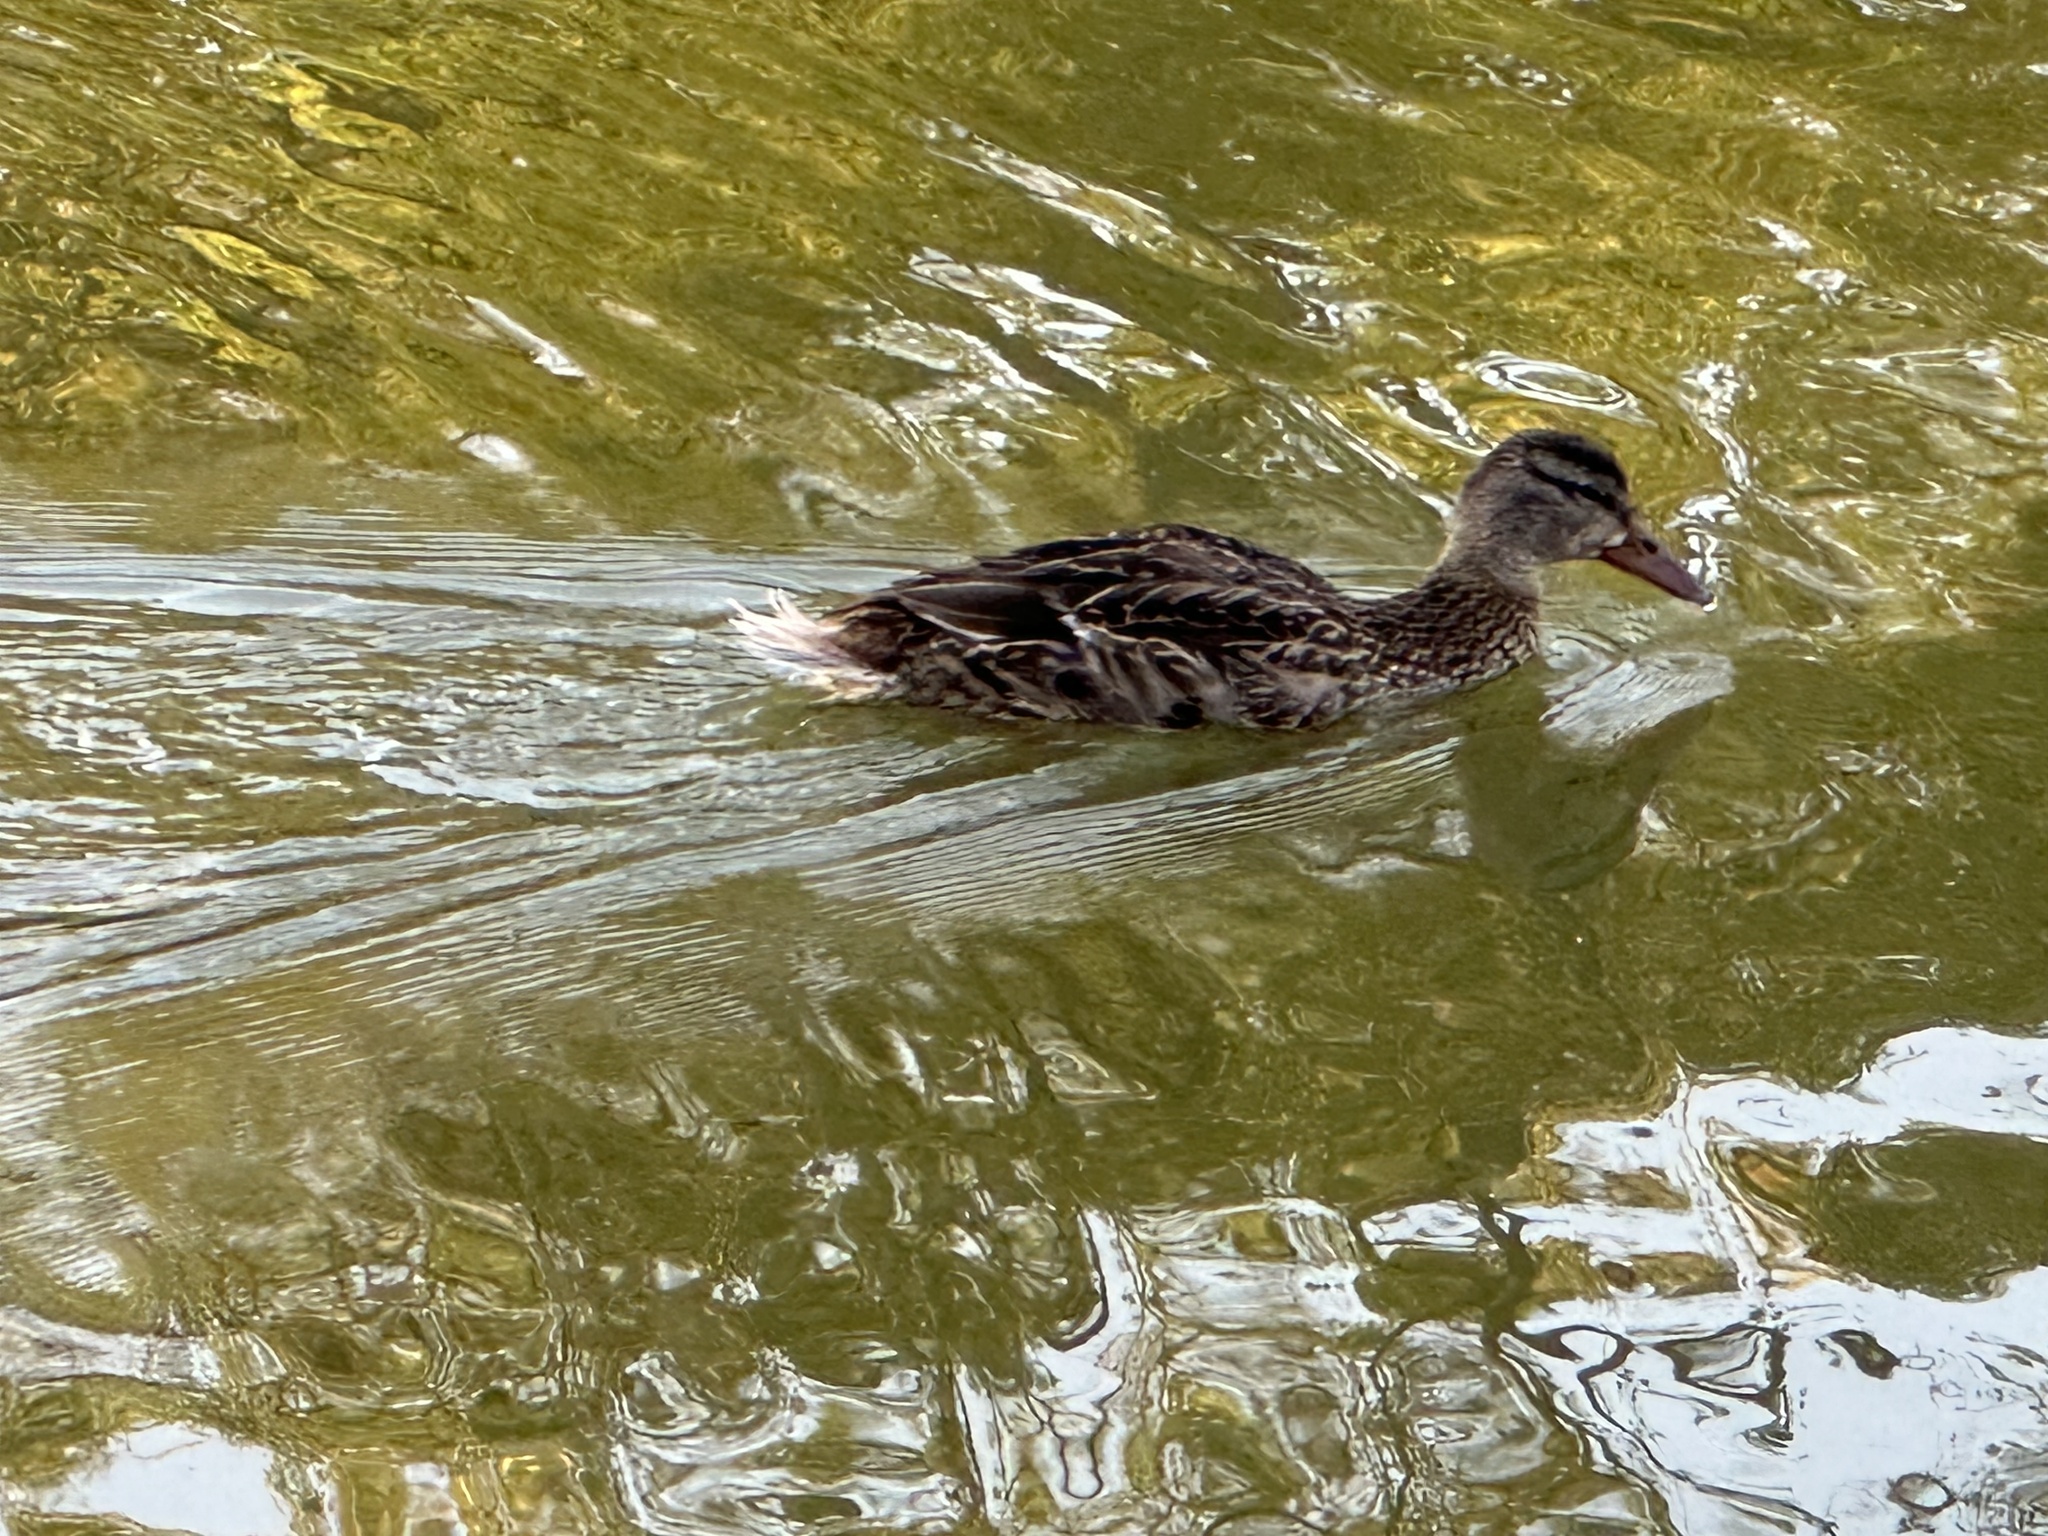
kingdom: Animalia
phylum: Chordata
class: Aves
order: Anseriformes
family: Anatidae
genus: Anas
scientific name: Anas platyrhynchos
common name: Mallard
